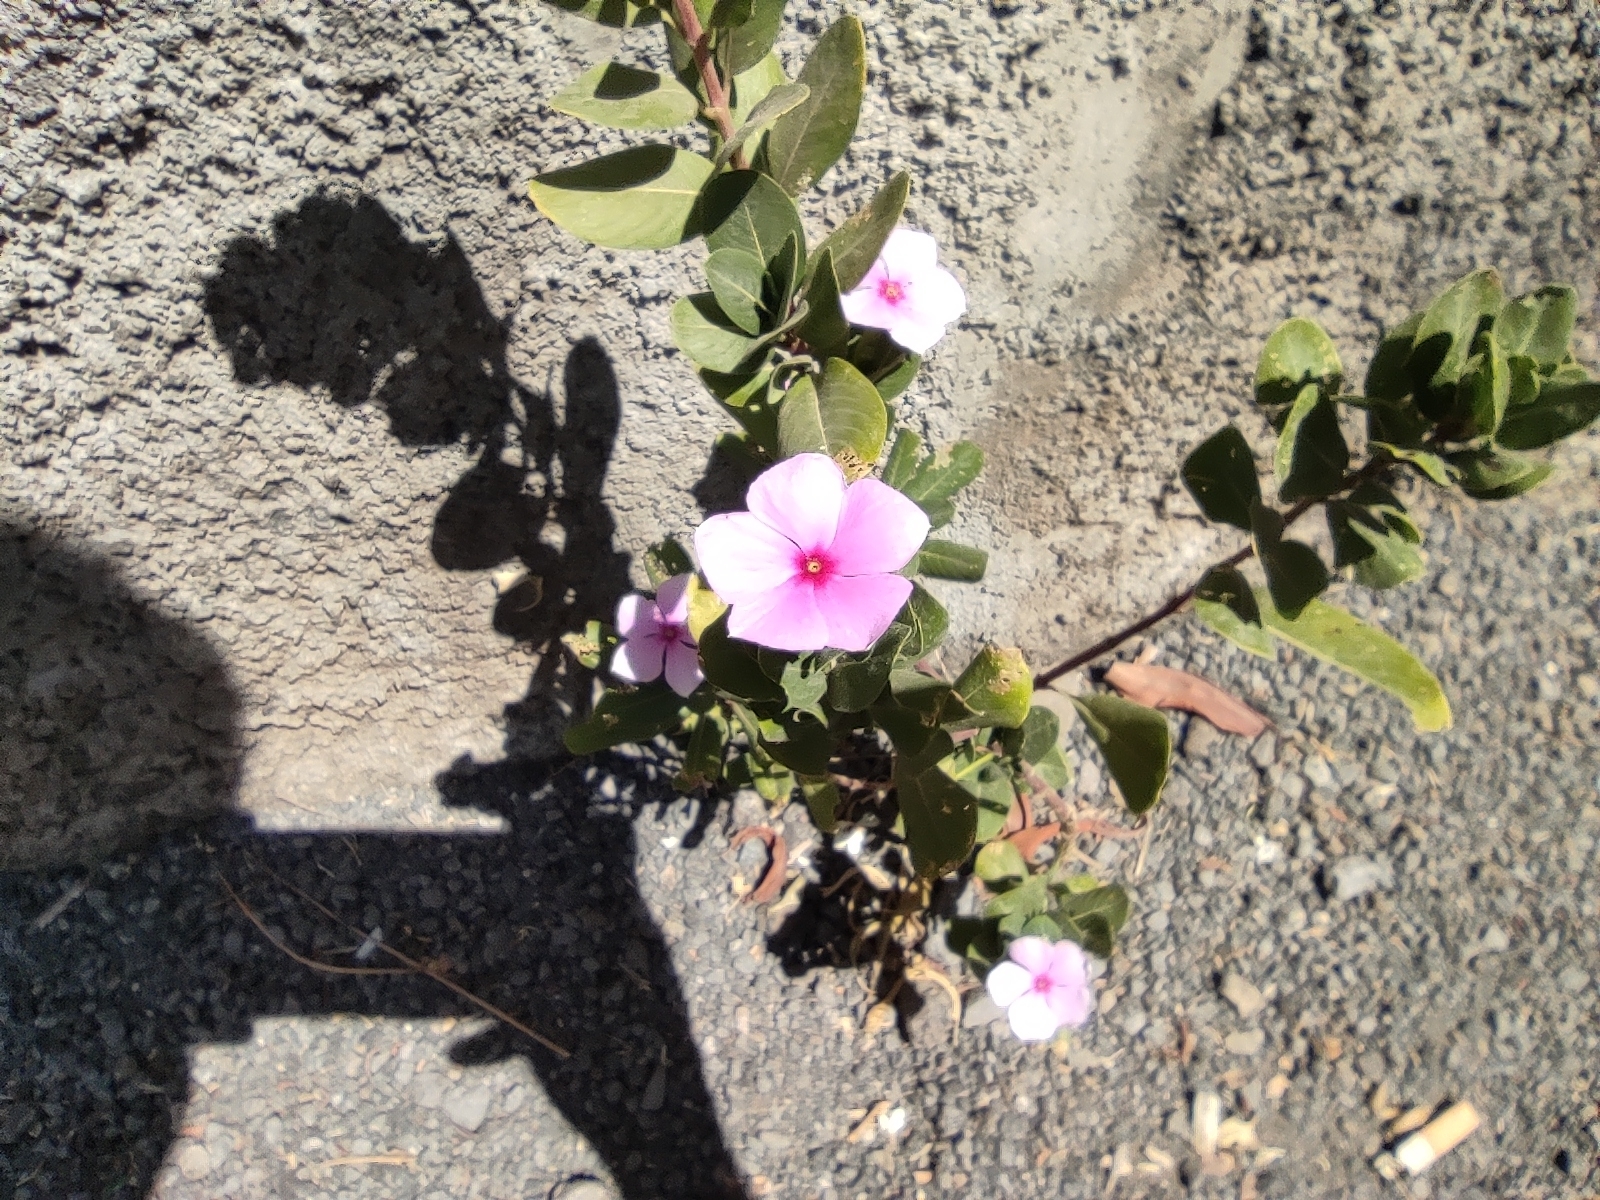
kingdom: Plantae
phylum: Tracheophyta
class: Magnoliopsida
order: Gentianales
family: Apocynaceae
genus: Catharanthus
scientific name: Catharanthus roseus
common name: Madagascar periwinkle
